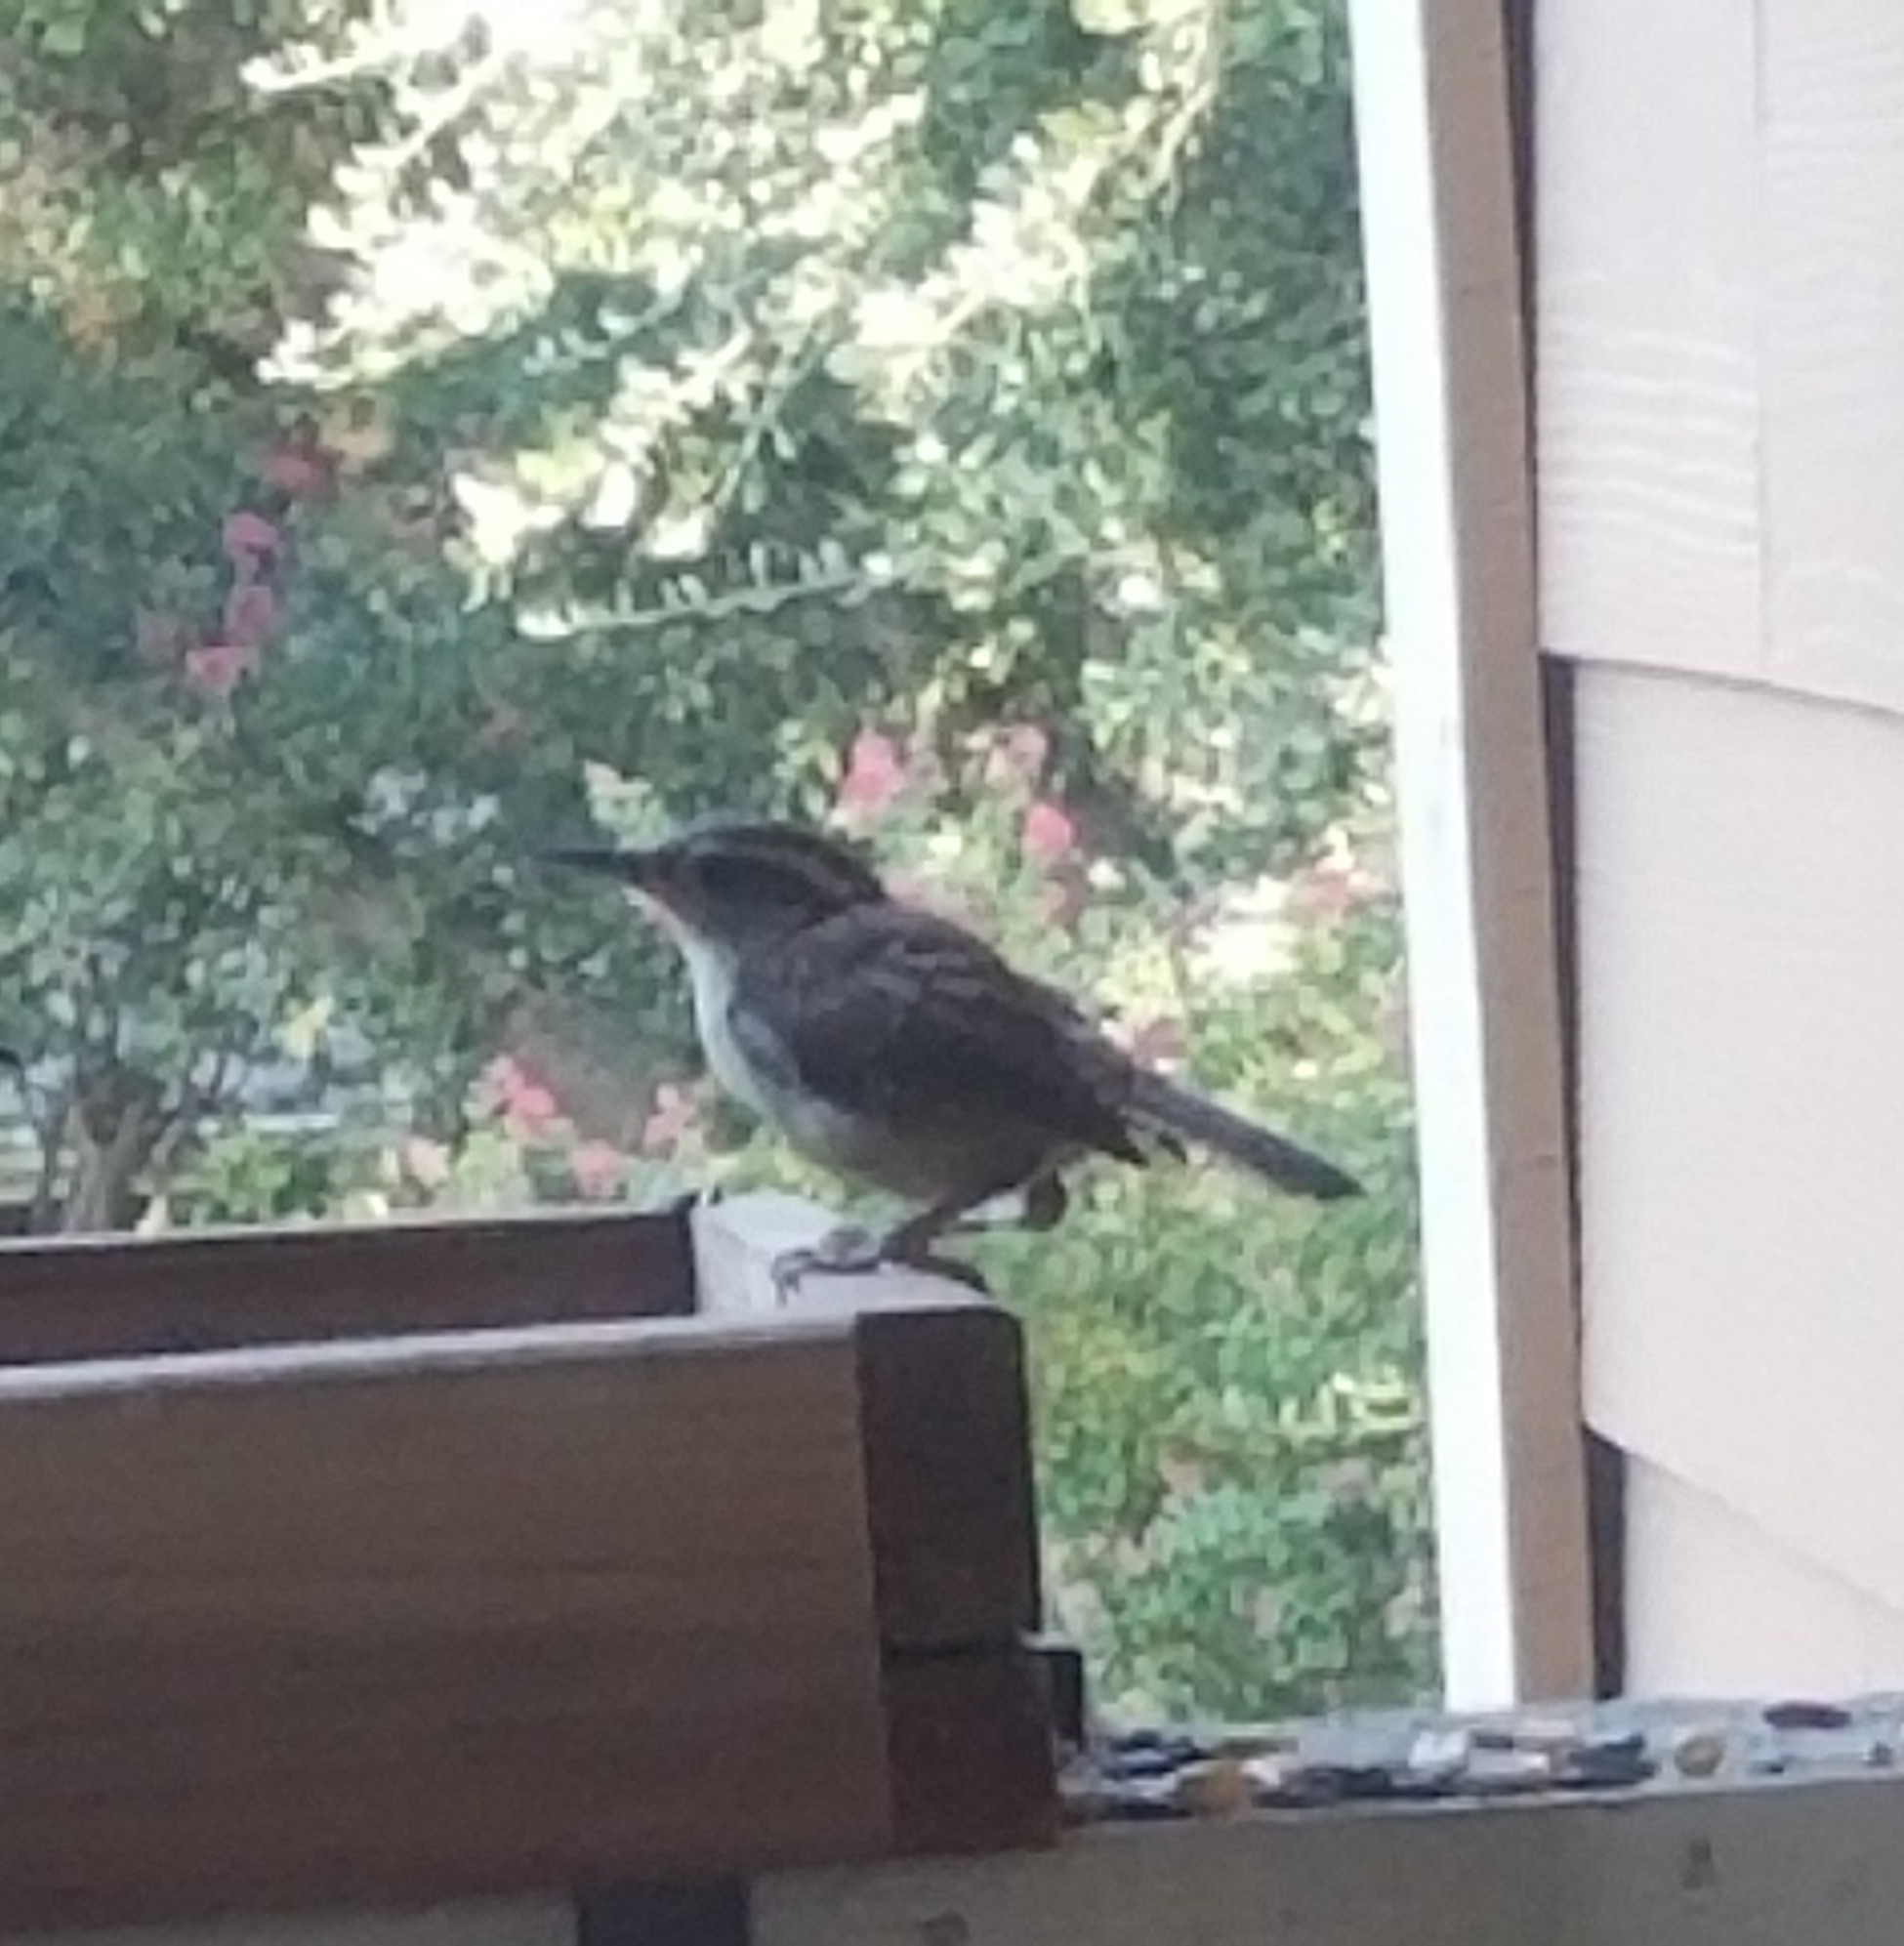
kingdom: Animalia
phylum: Chordata
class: Aves
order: Passeriformes
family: Troglodytidae
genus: Thryothorus
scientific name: Thryothorus ludovicianus
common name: Carolina wren
